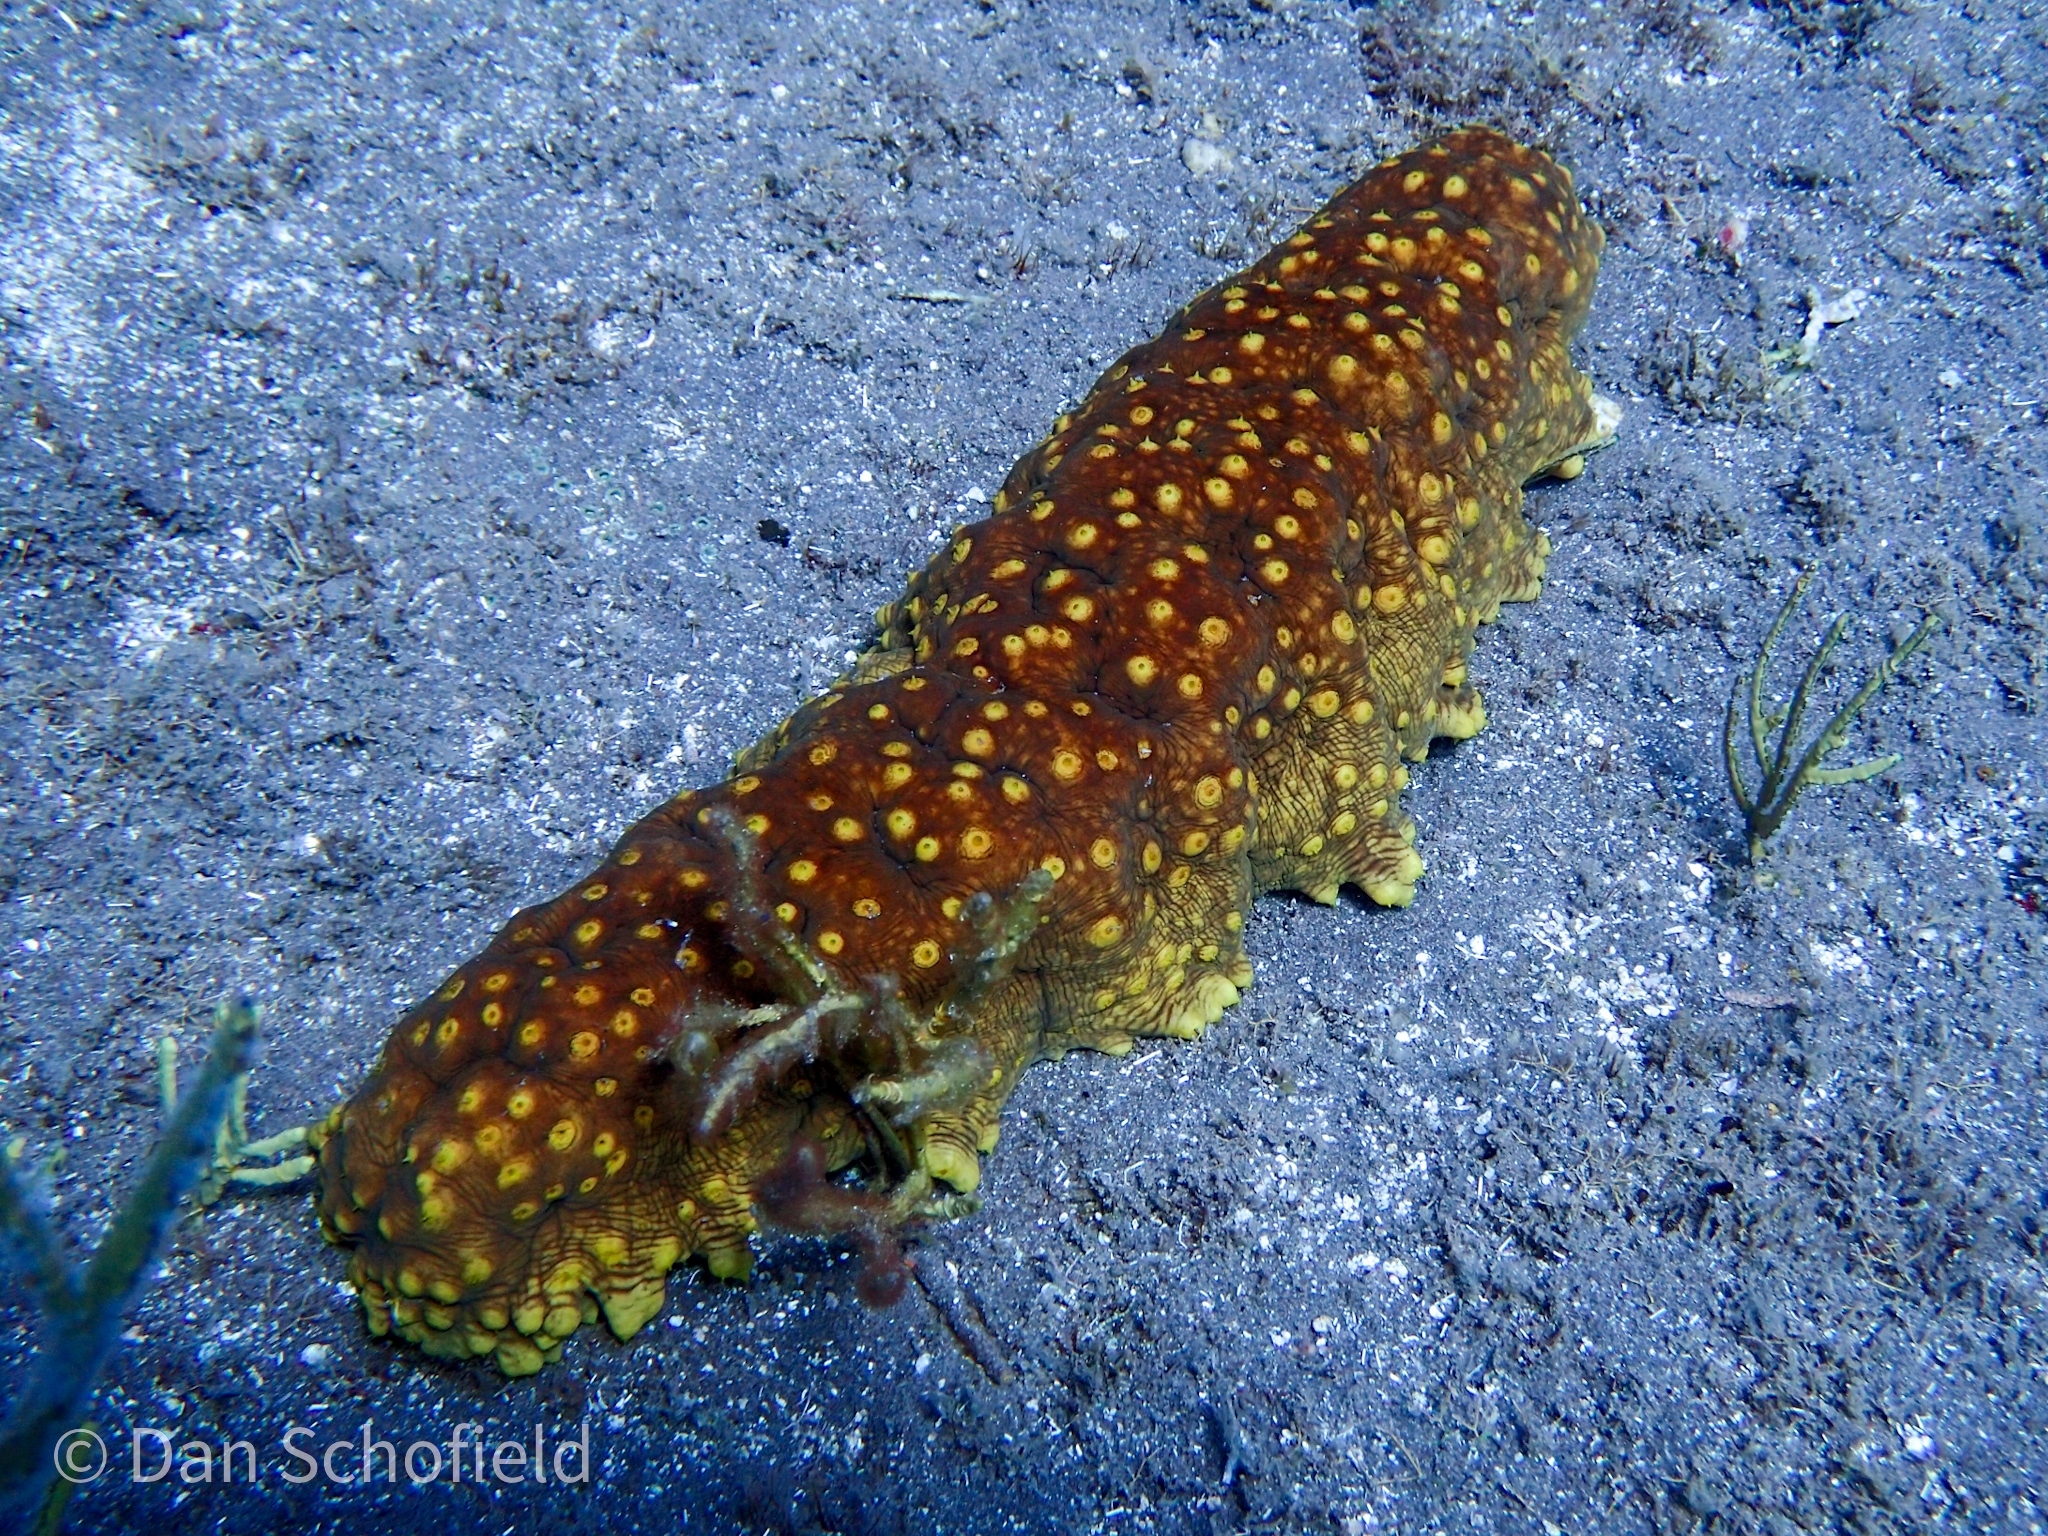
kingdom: Animalia
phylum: Echinodermata
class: Holothuroidea
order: Synallactida
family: Stichopodidae
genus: Isostichopus
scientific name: Isostichopus badionotus
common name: Chocolate chip cucumber
